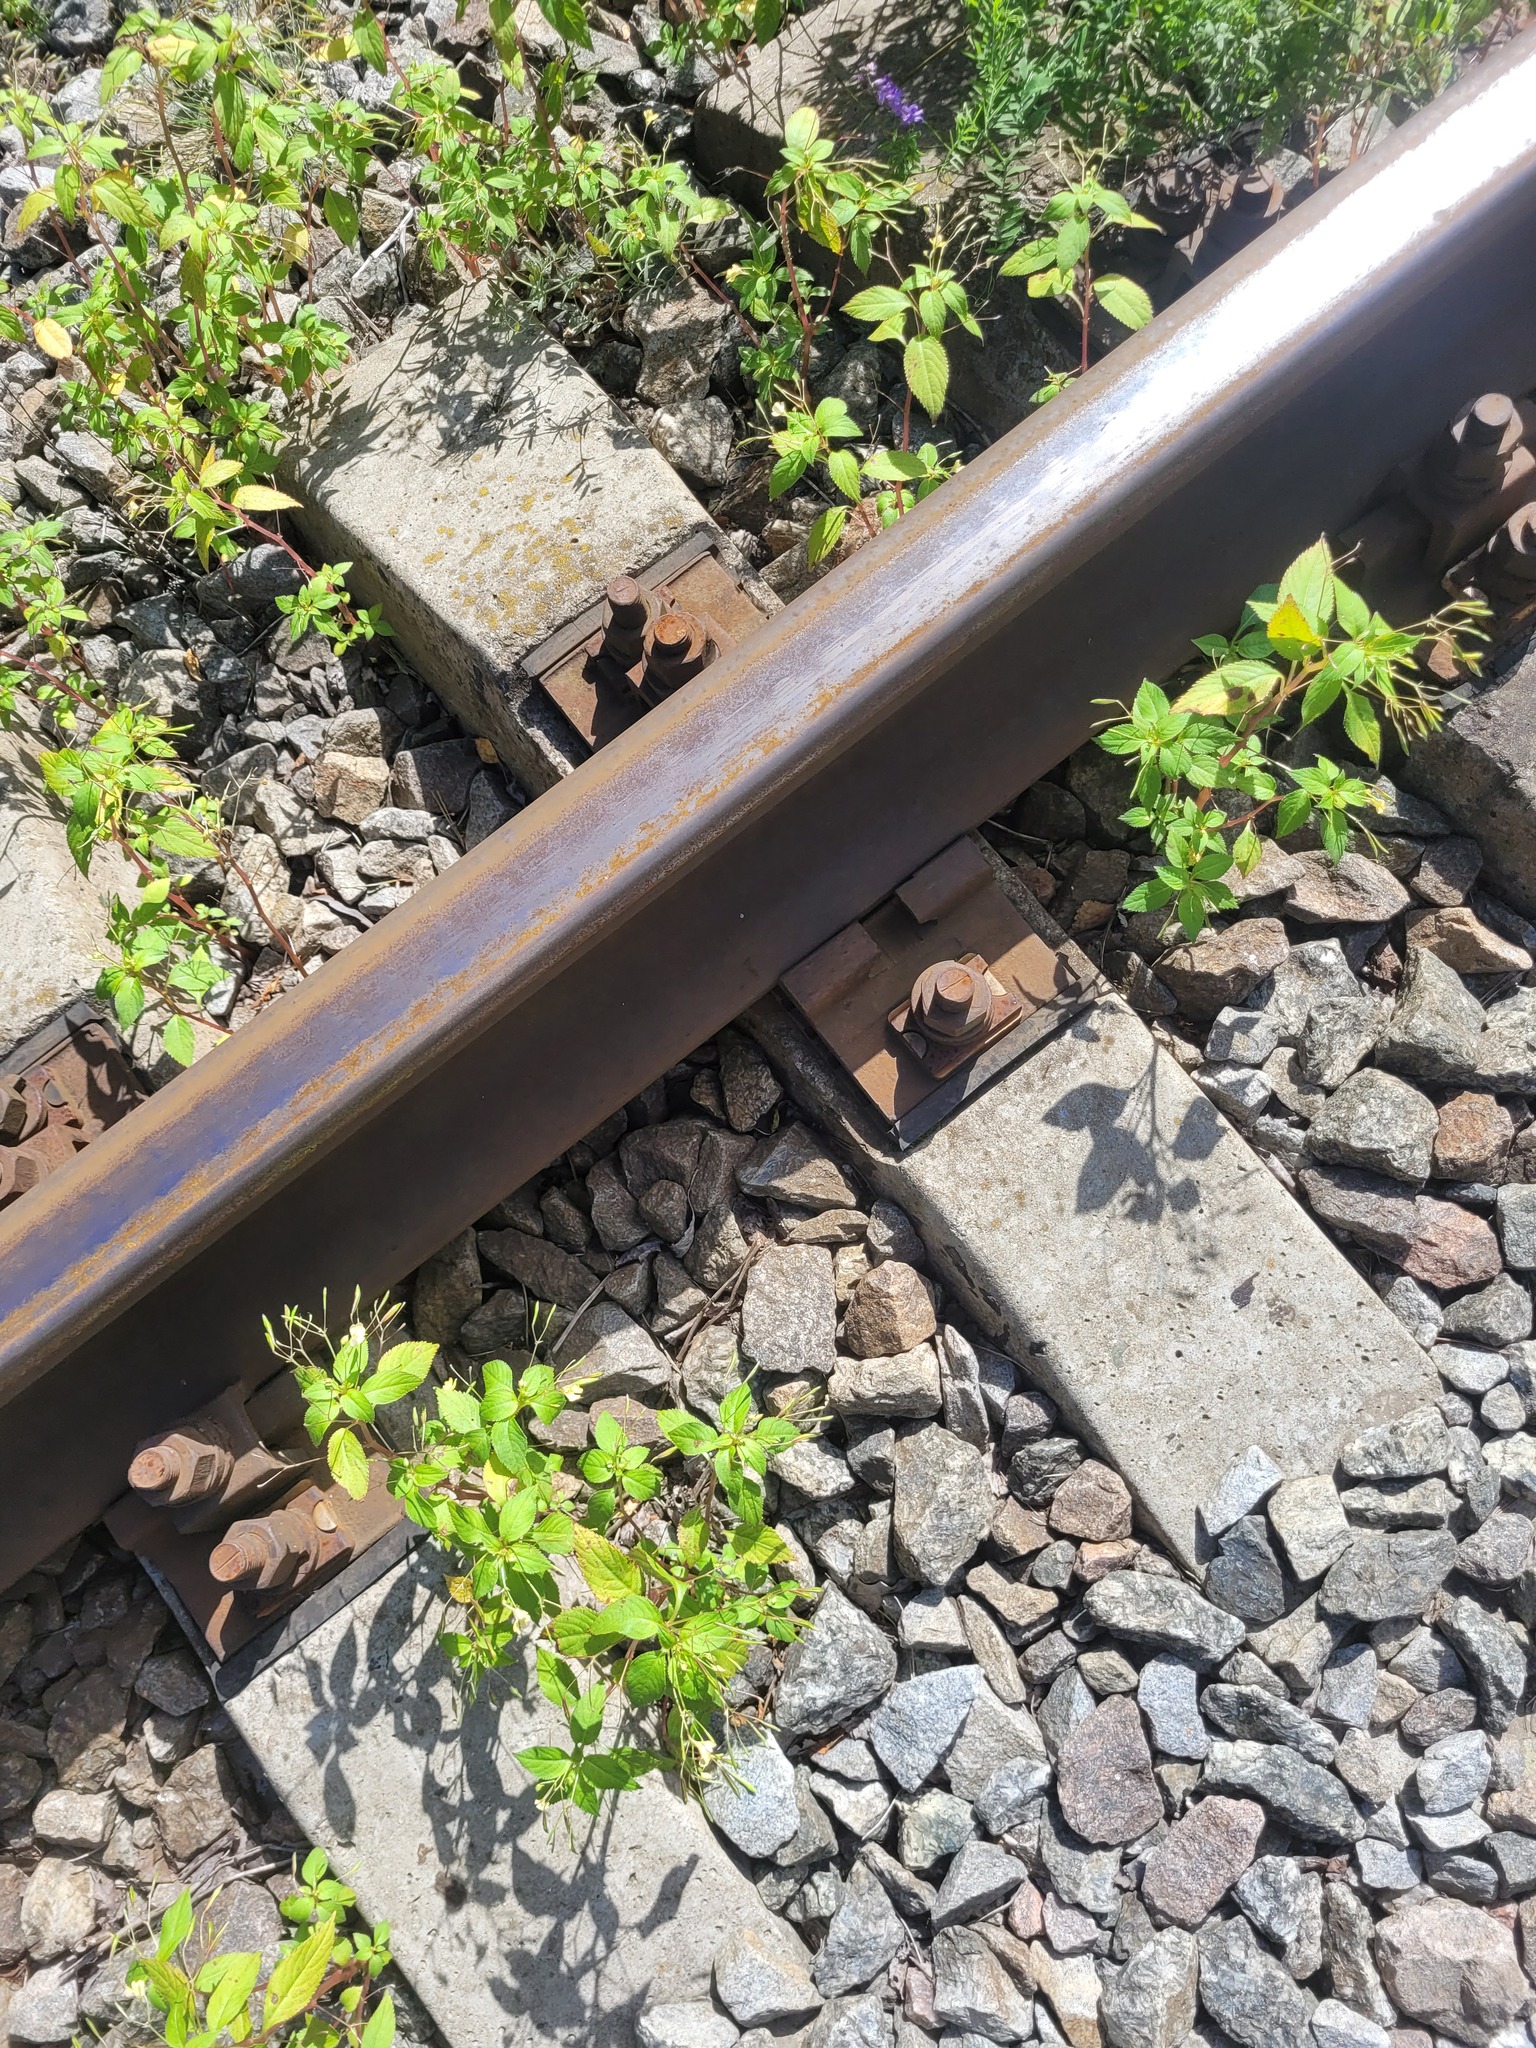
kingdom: Plantae
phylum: Tracheophyta
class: Magnoliopsida
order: Ericales
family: Balsaminaceae
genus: Impatiens
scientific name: Impatiens parviflora
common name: Small balsam
